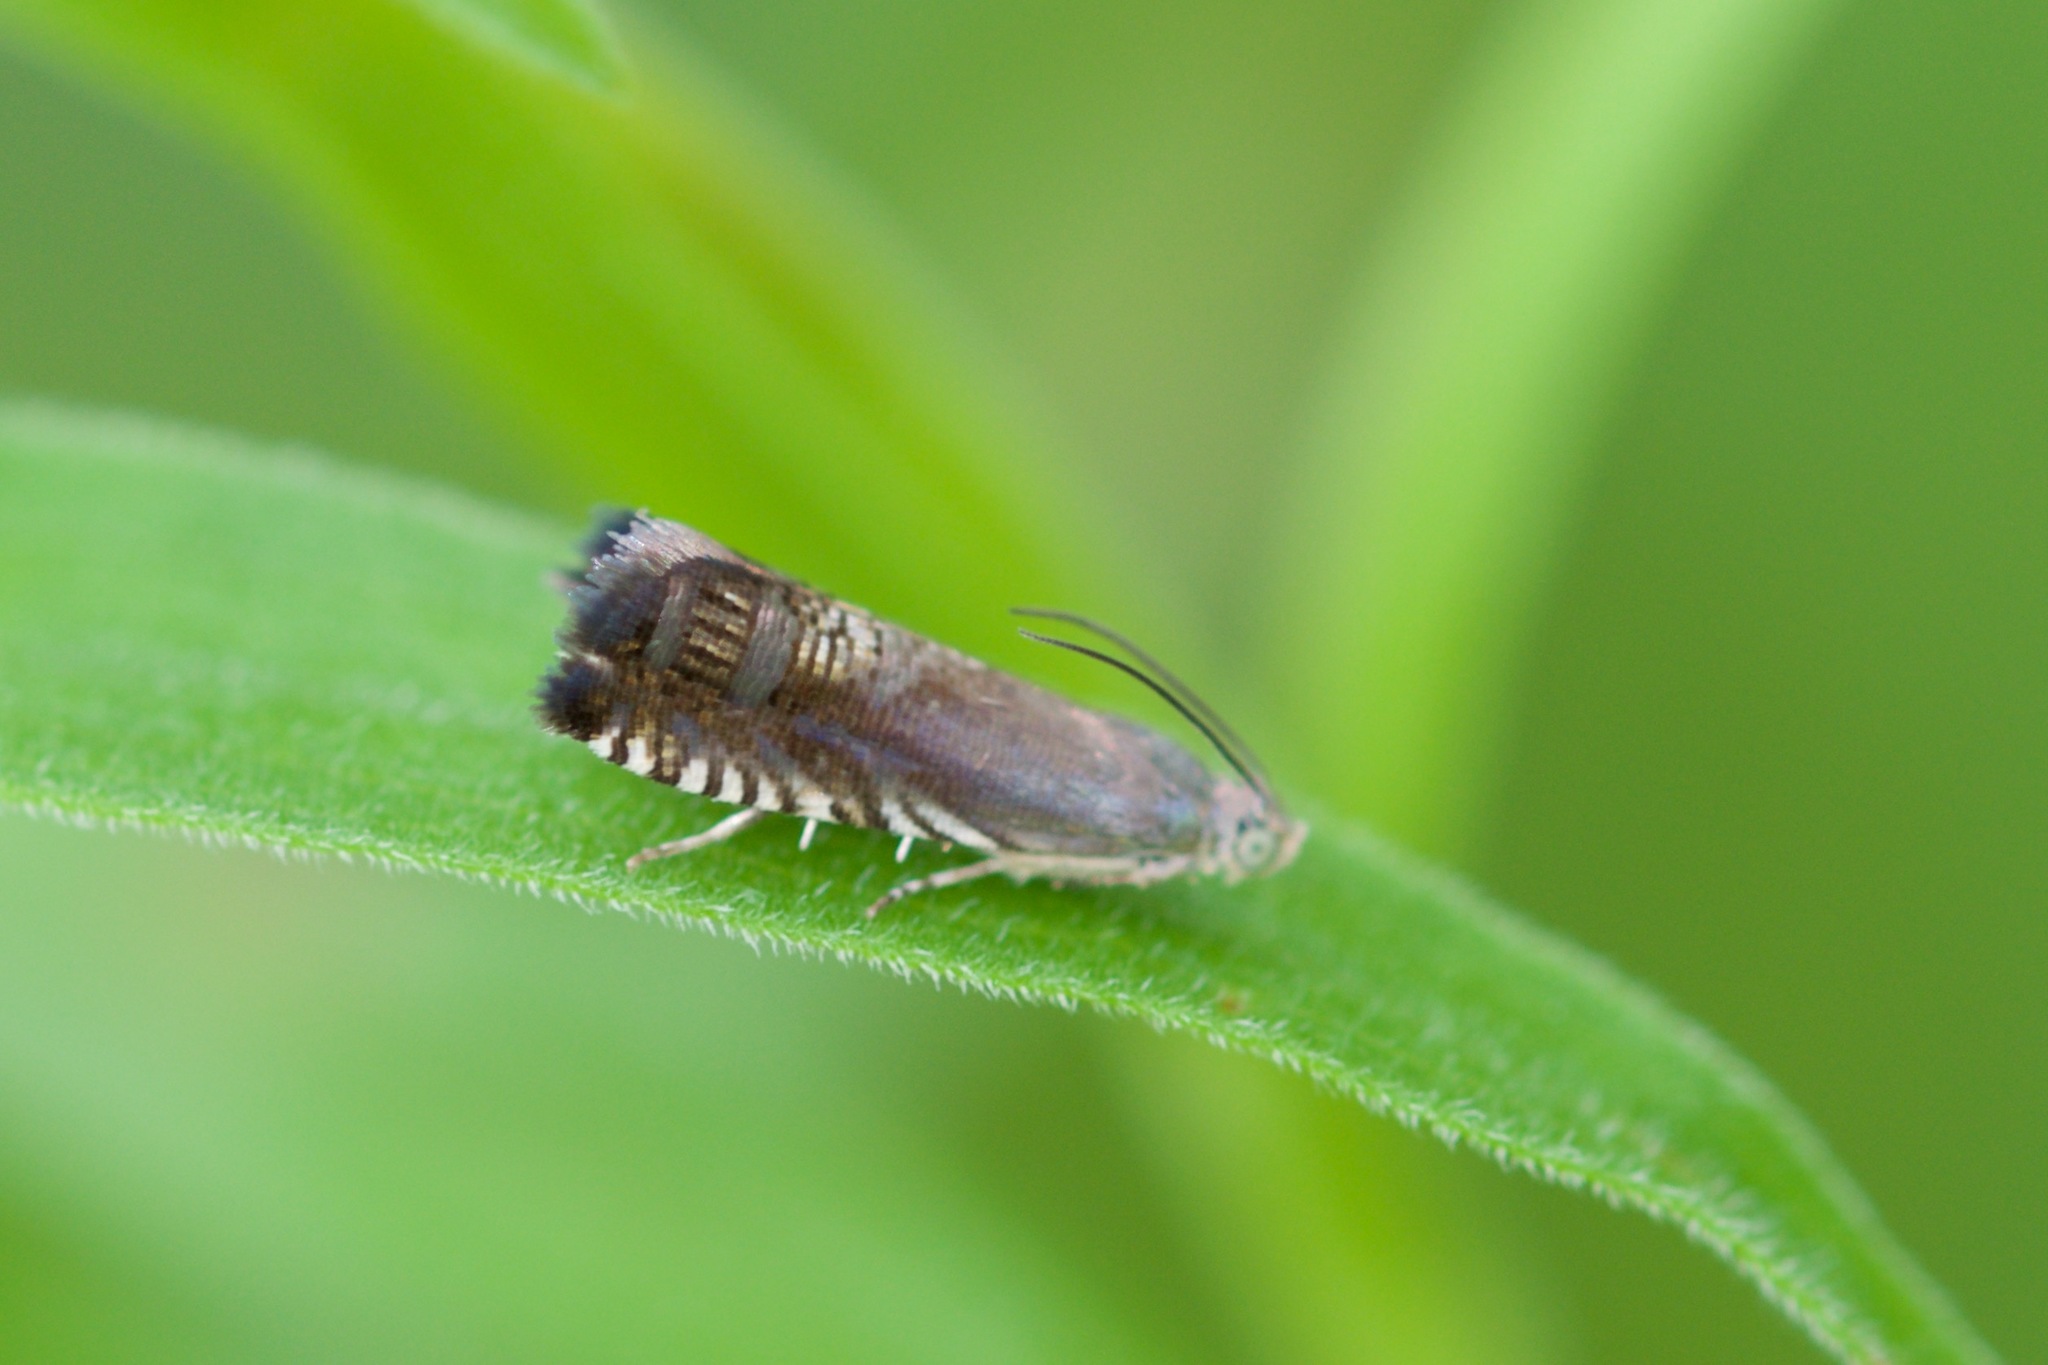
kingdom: Animalia
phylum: Arthropoda
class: Insecta
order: Lepidoptera
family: Tortricidae
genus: Grapholita
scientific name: Grapholita
